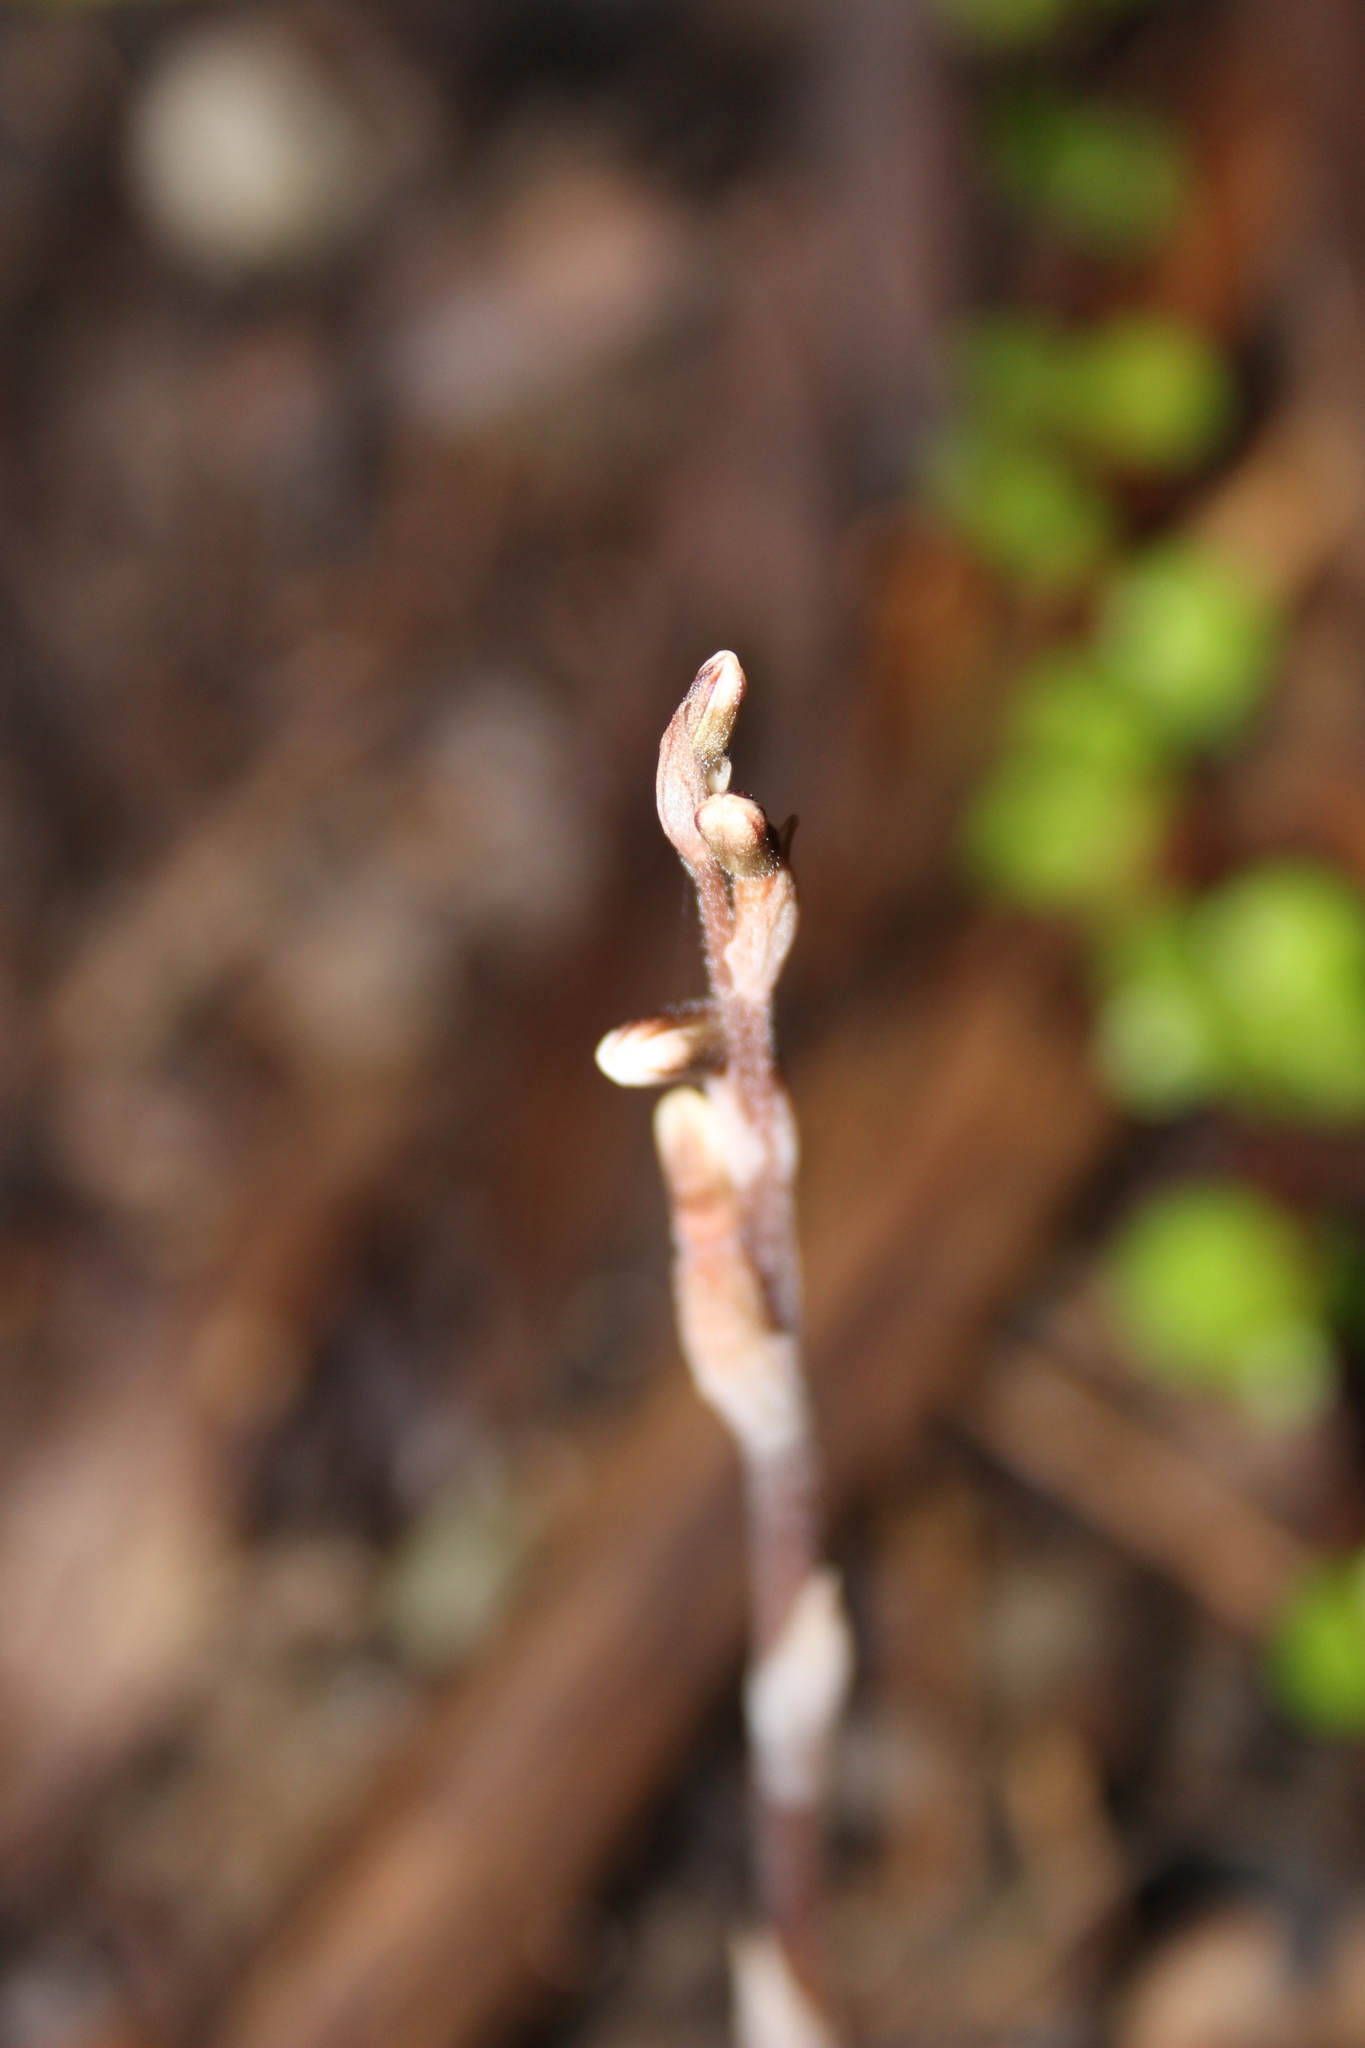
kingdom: Plantae
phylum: Tracheophyta
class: Liliopsida
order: Asparagales
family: Orchidaceae
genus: Danhatchia
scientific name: Danhatchia australis
